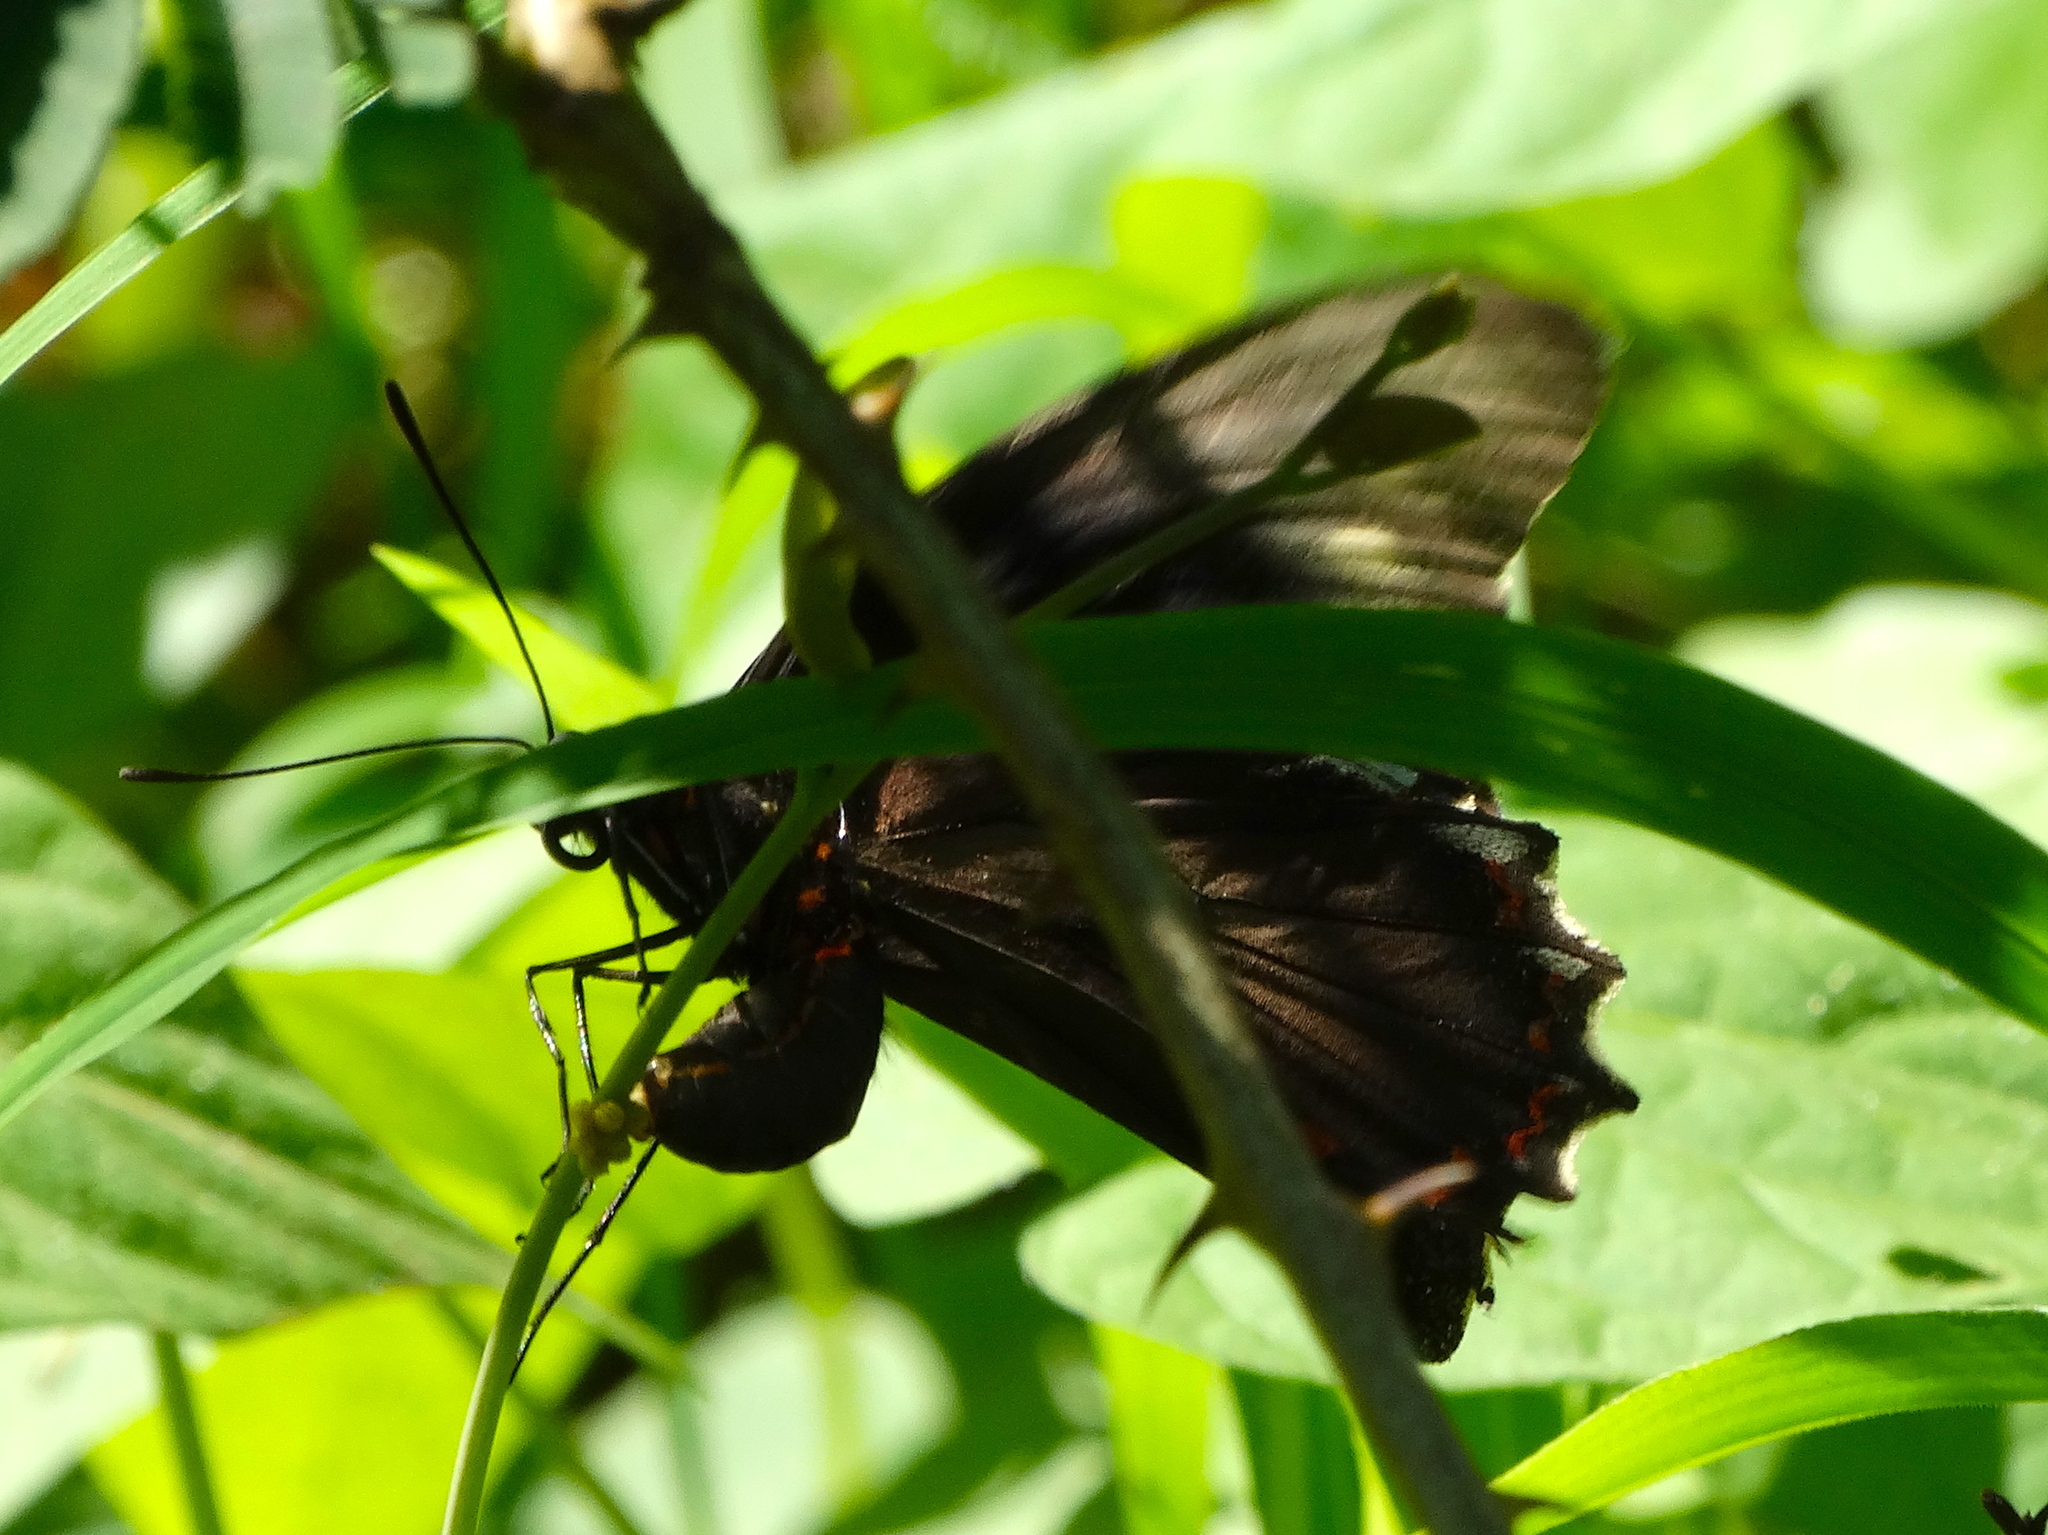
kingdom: Animalia
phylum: Arthropoda
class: Insecta
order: Lepidoptera
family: Papilionidae
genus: Battus
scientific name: Battus polydamas
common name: Polydamas swallowtail
